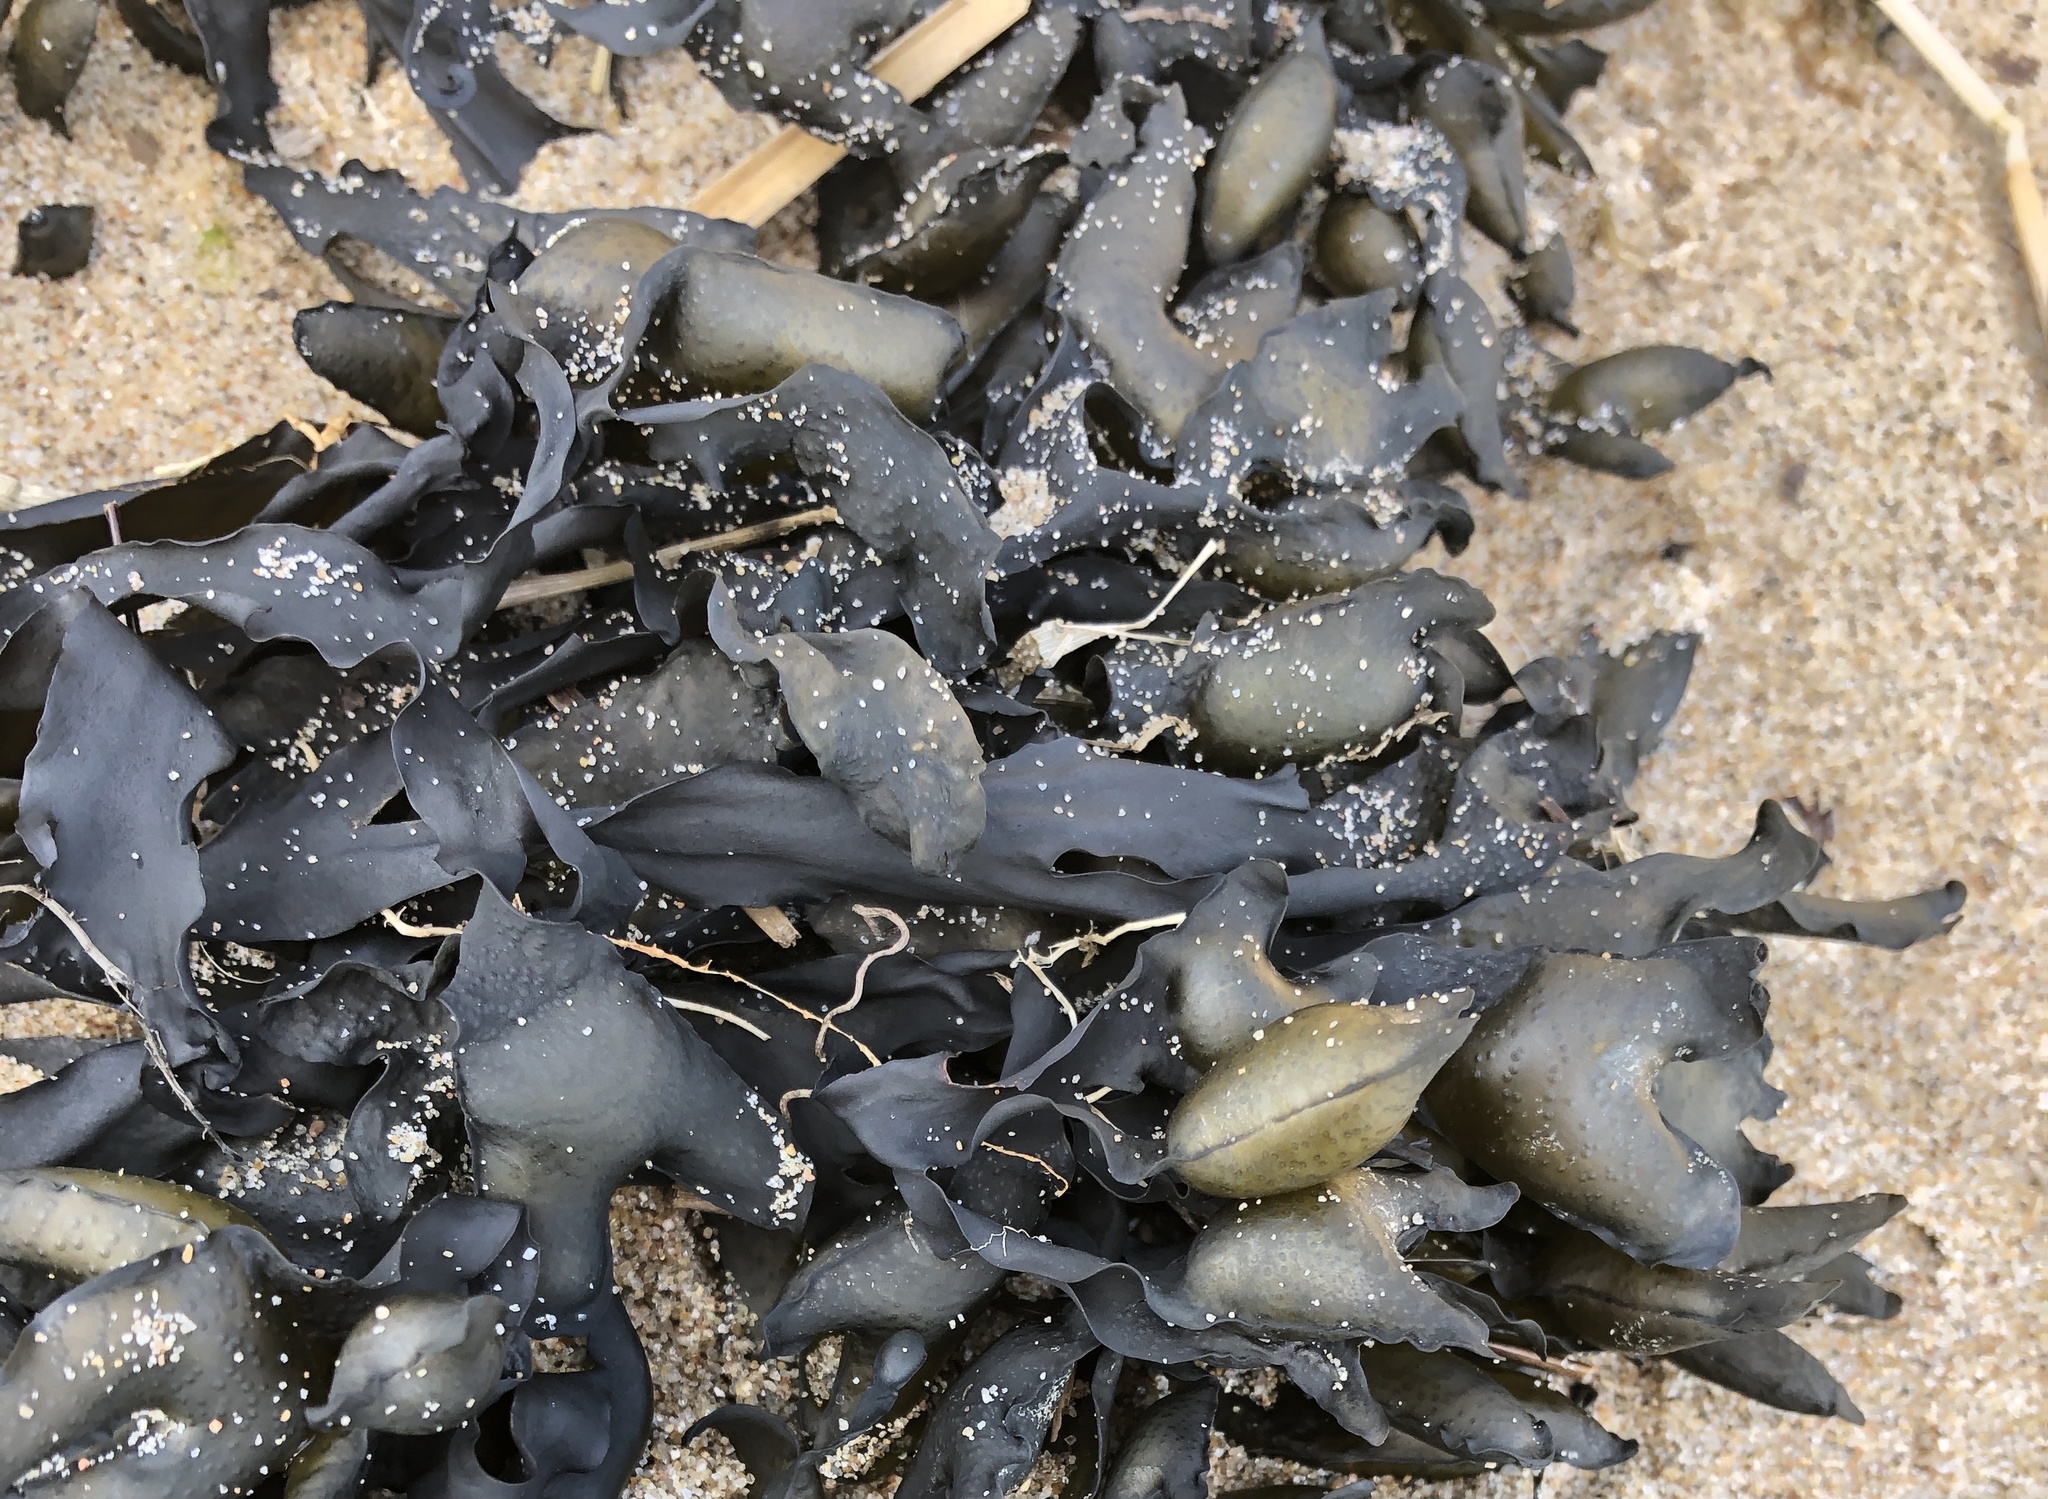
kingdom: Chromista
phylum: Ochrophyta
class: Phaeophyceae
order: Fucales
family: Fucaceae
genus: Fucus
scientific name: Fucus evanescens
